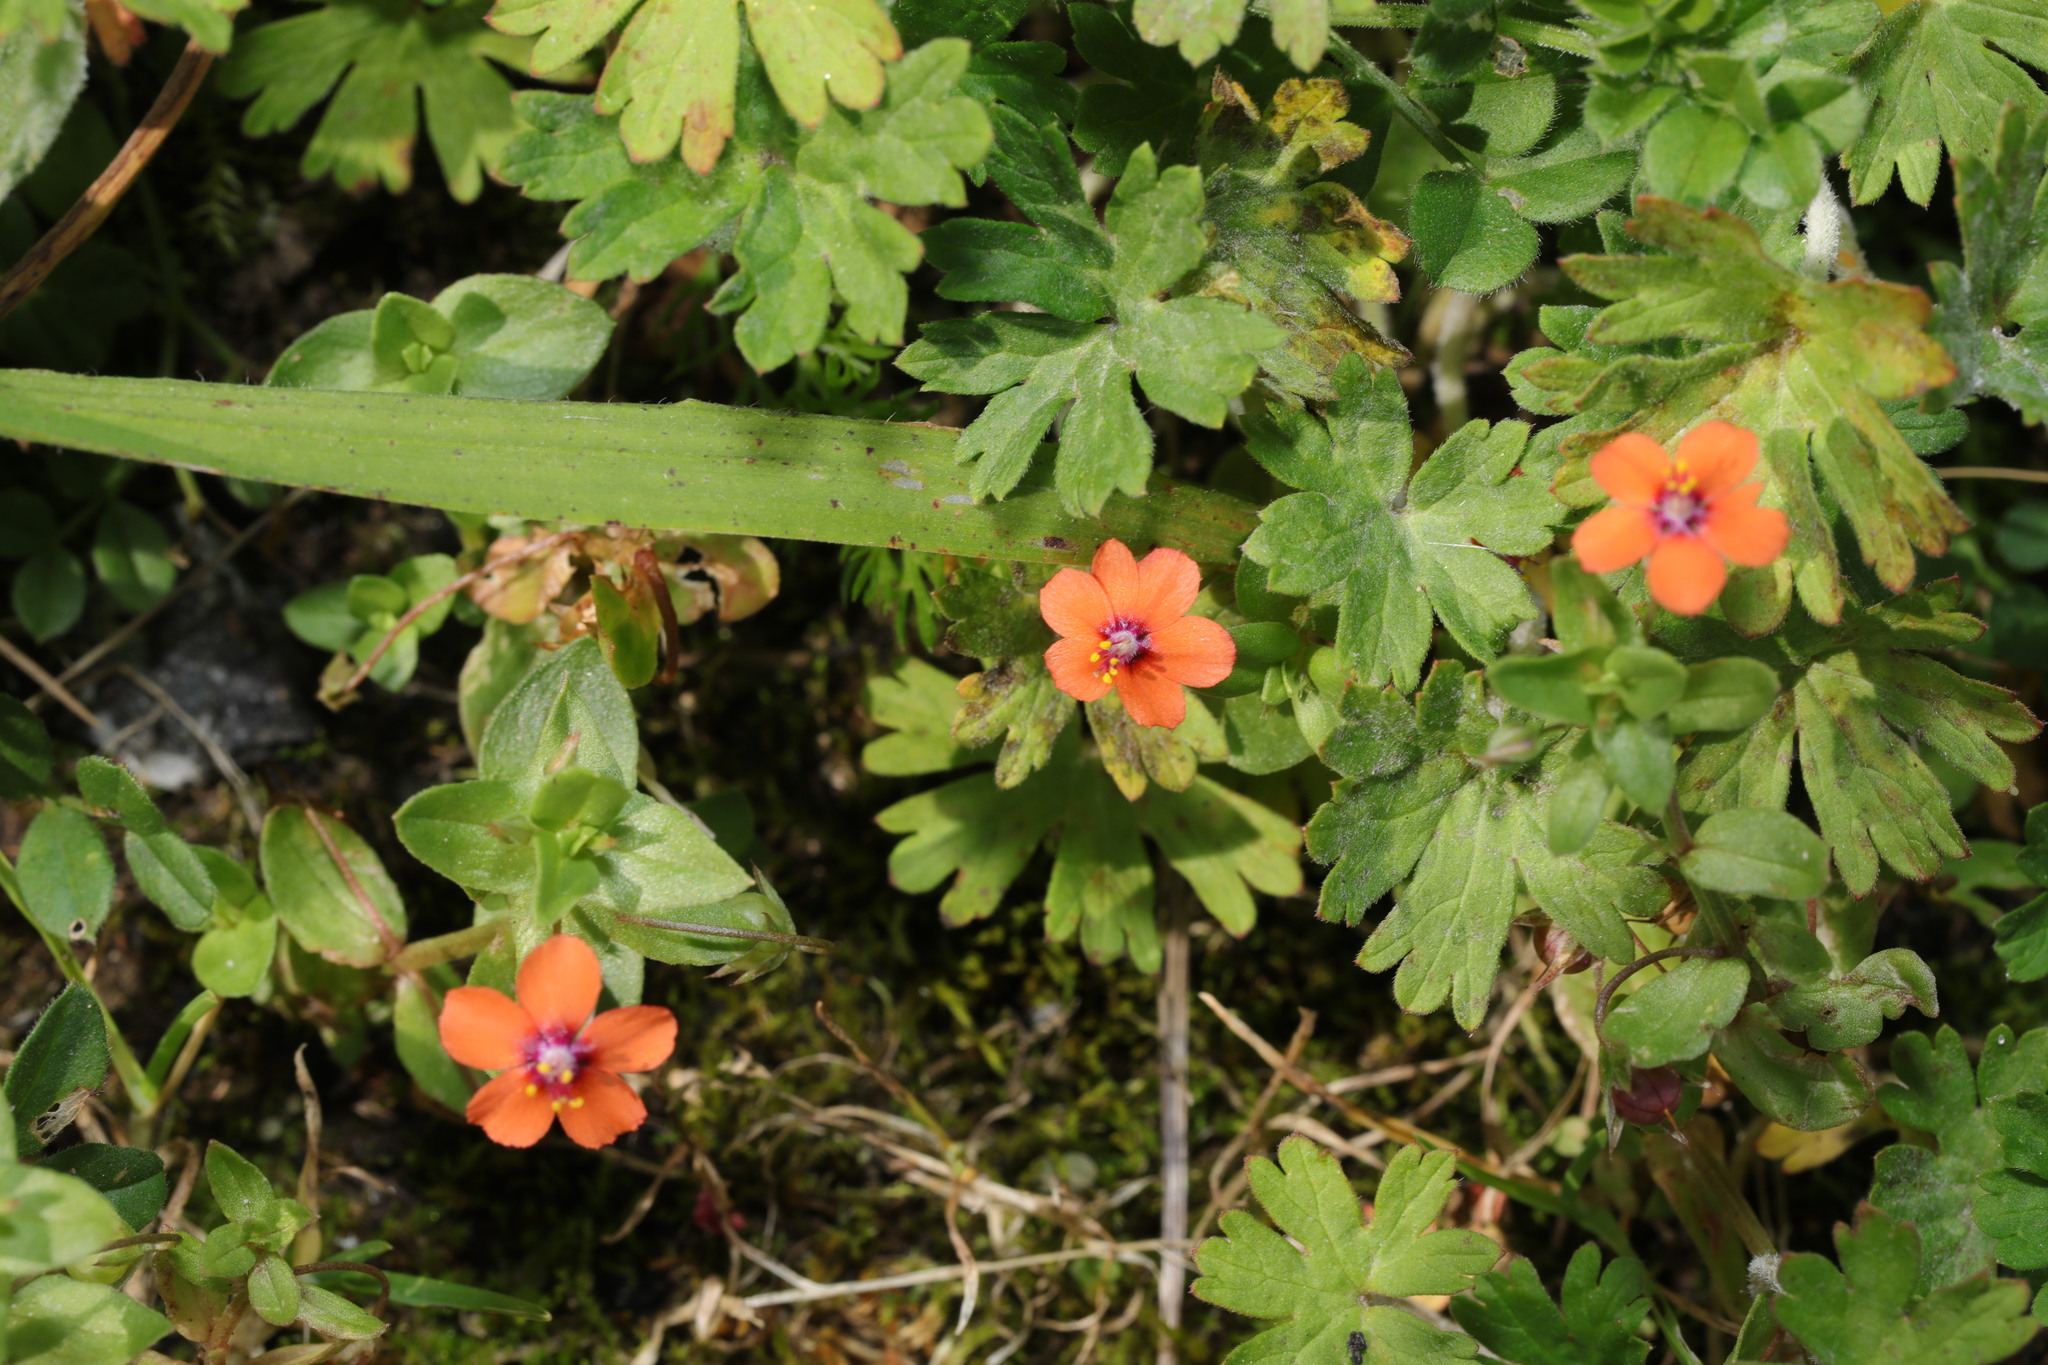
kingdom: Plantae
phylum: Tracheophyta
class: Magnoliopsida
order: Ericales
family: Primulaceae
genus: Lysimachia
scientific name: Lysimachia arvensis
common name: Scarlet pimpernel
